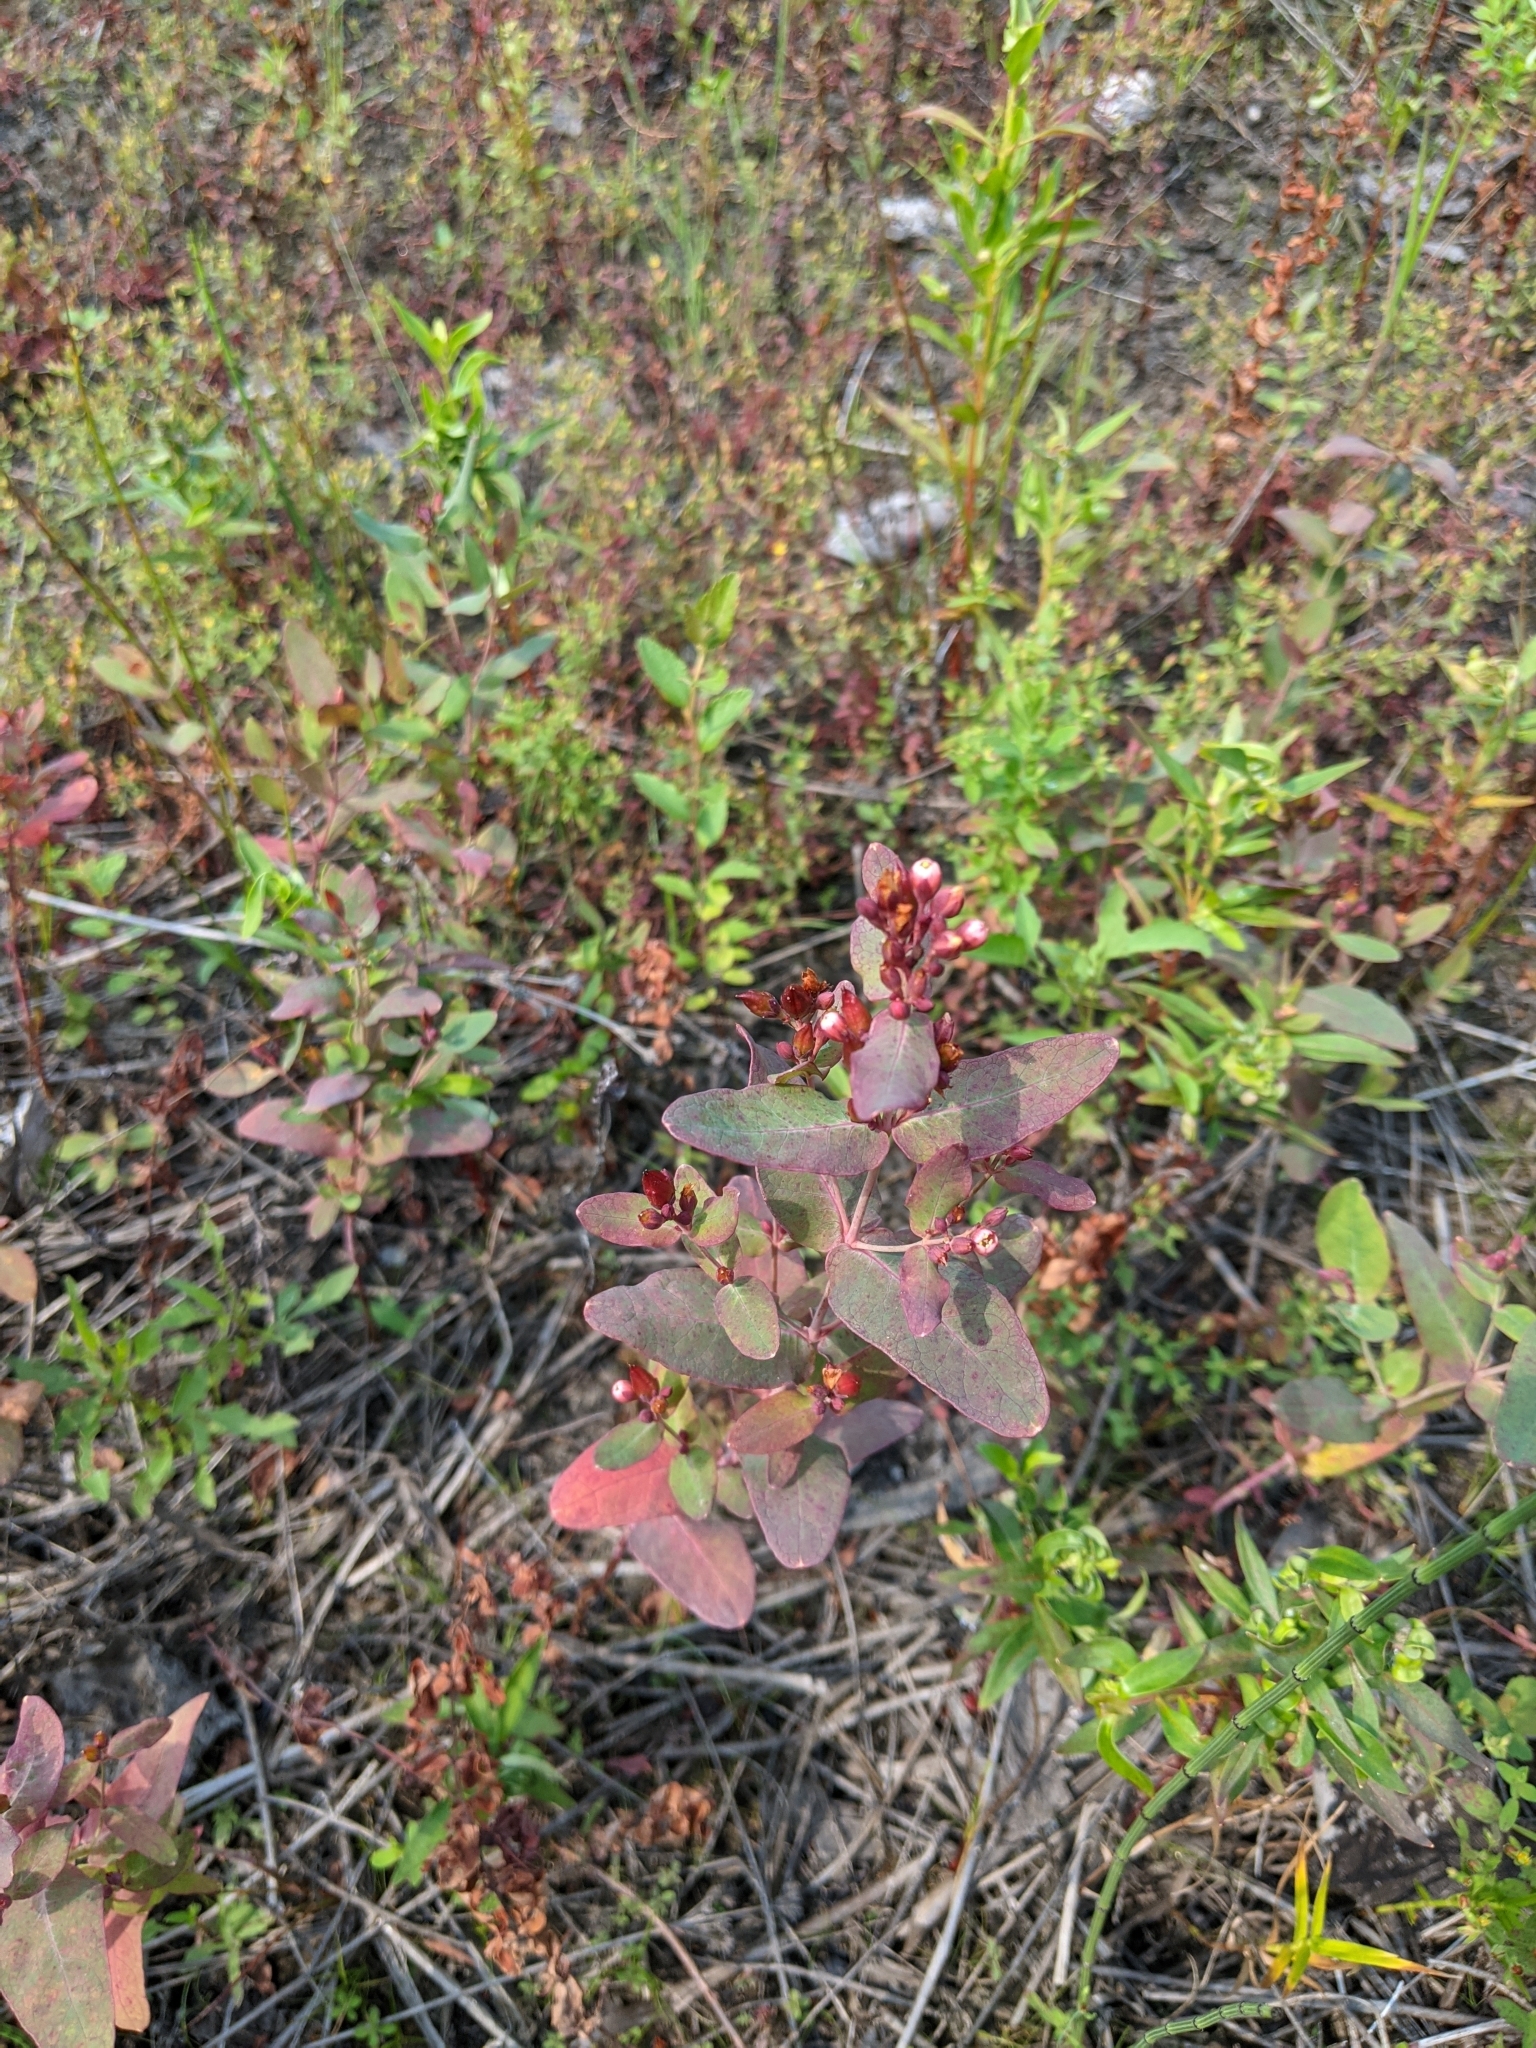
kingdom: Plantae
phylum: Tracheophyta
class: Magnoliopsida
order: Malpighiales
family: Hypericaceae
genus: Triadenum
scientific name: Triadenum fraseri
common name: Fraser's marsh st. johnswort
